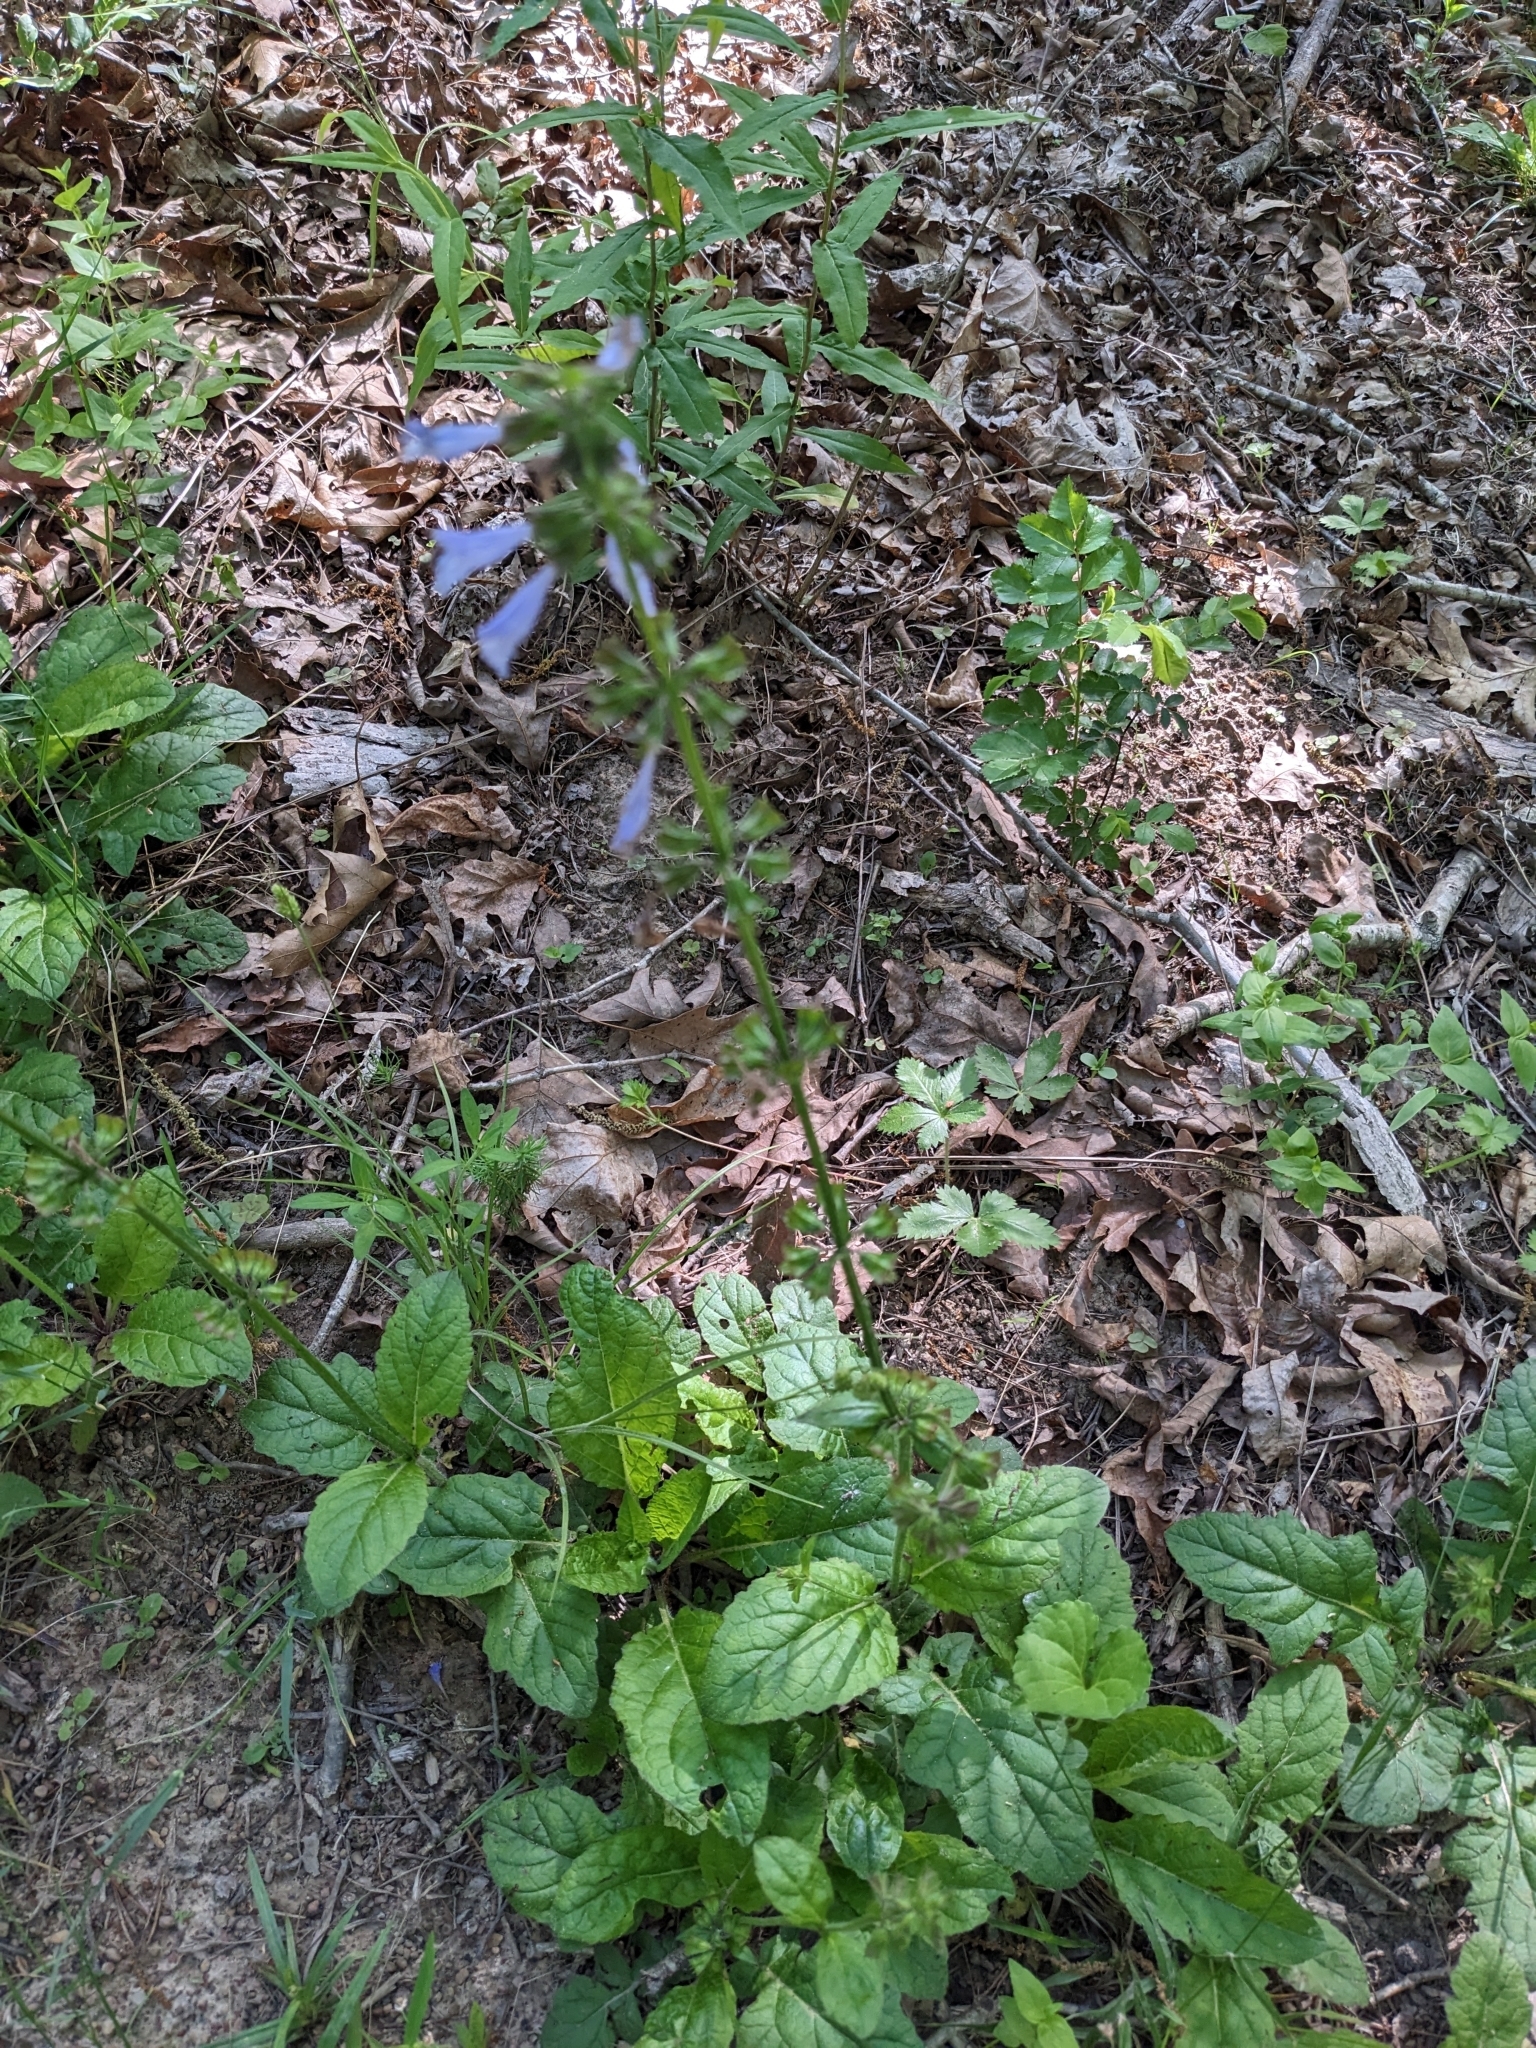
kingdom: Plantae
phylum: Tracheophyta
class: Magnoliopsida
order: Lamiales
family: Lamiaceae
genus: Salvia
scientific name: Salvia lyrata
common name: Cancerweed
